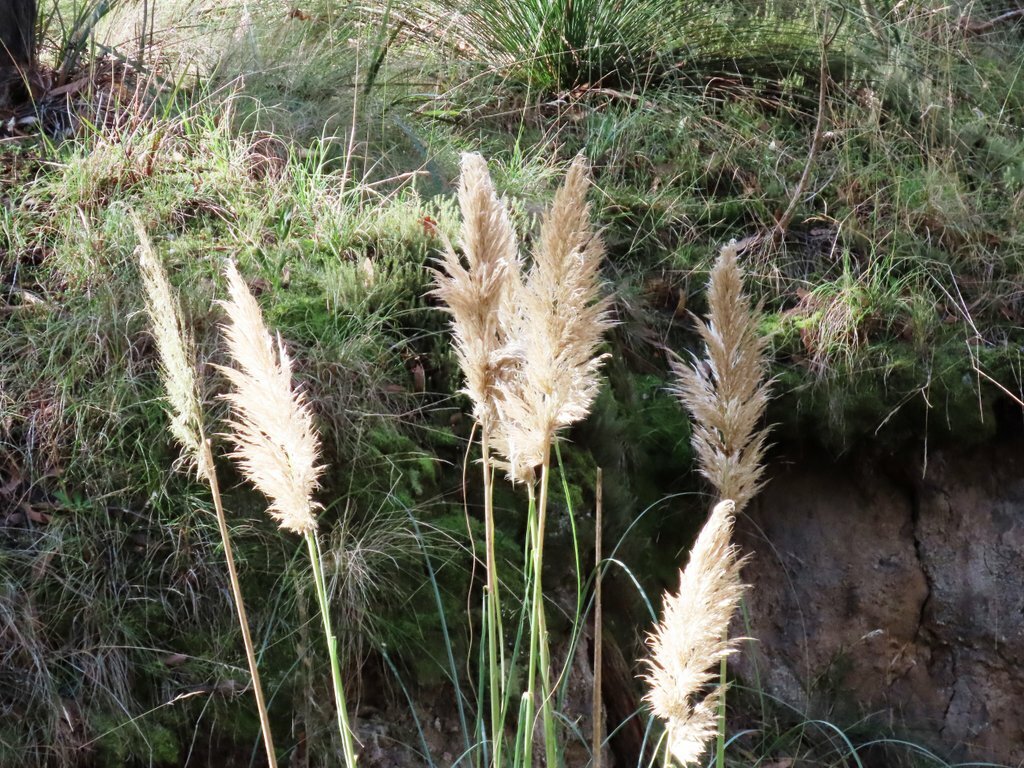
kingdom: Plantae
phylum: Tracheophyta
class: Liliopsida
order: Poales
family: Poaceae
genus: Cortaderia
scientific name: Cortaderia selloana
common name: Uruguayan pampas grass
